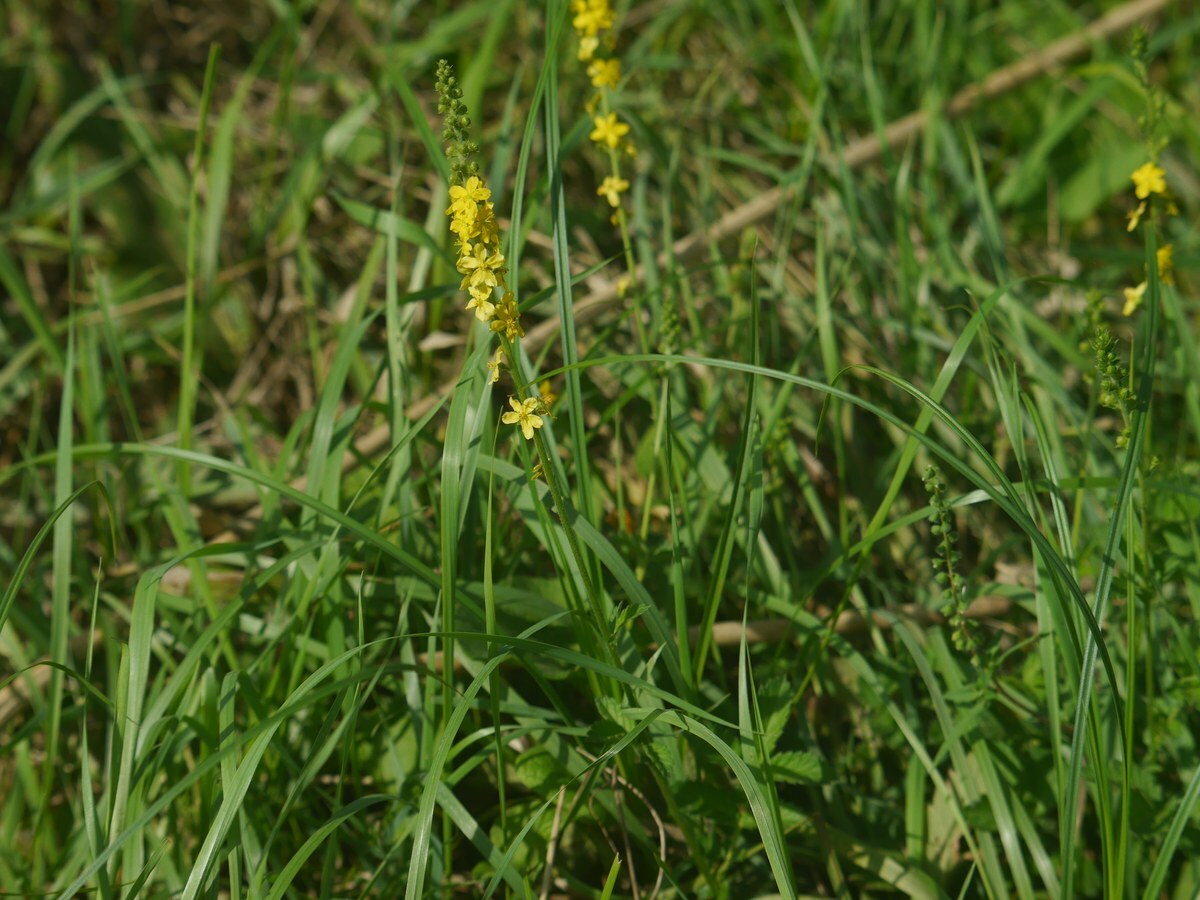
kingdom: Plantae
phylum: Tracheophyta
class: Magnoliopsida
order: Rosales
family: Rosaceae
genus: Agrimonia
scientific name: Agrimonia eupatoria
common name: Agrimony
